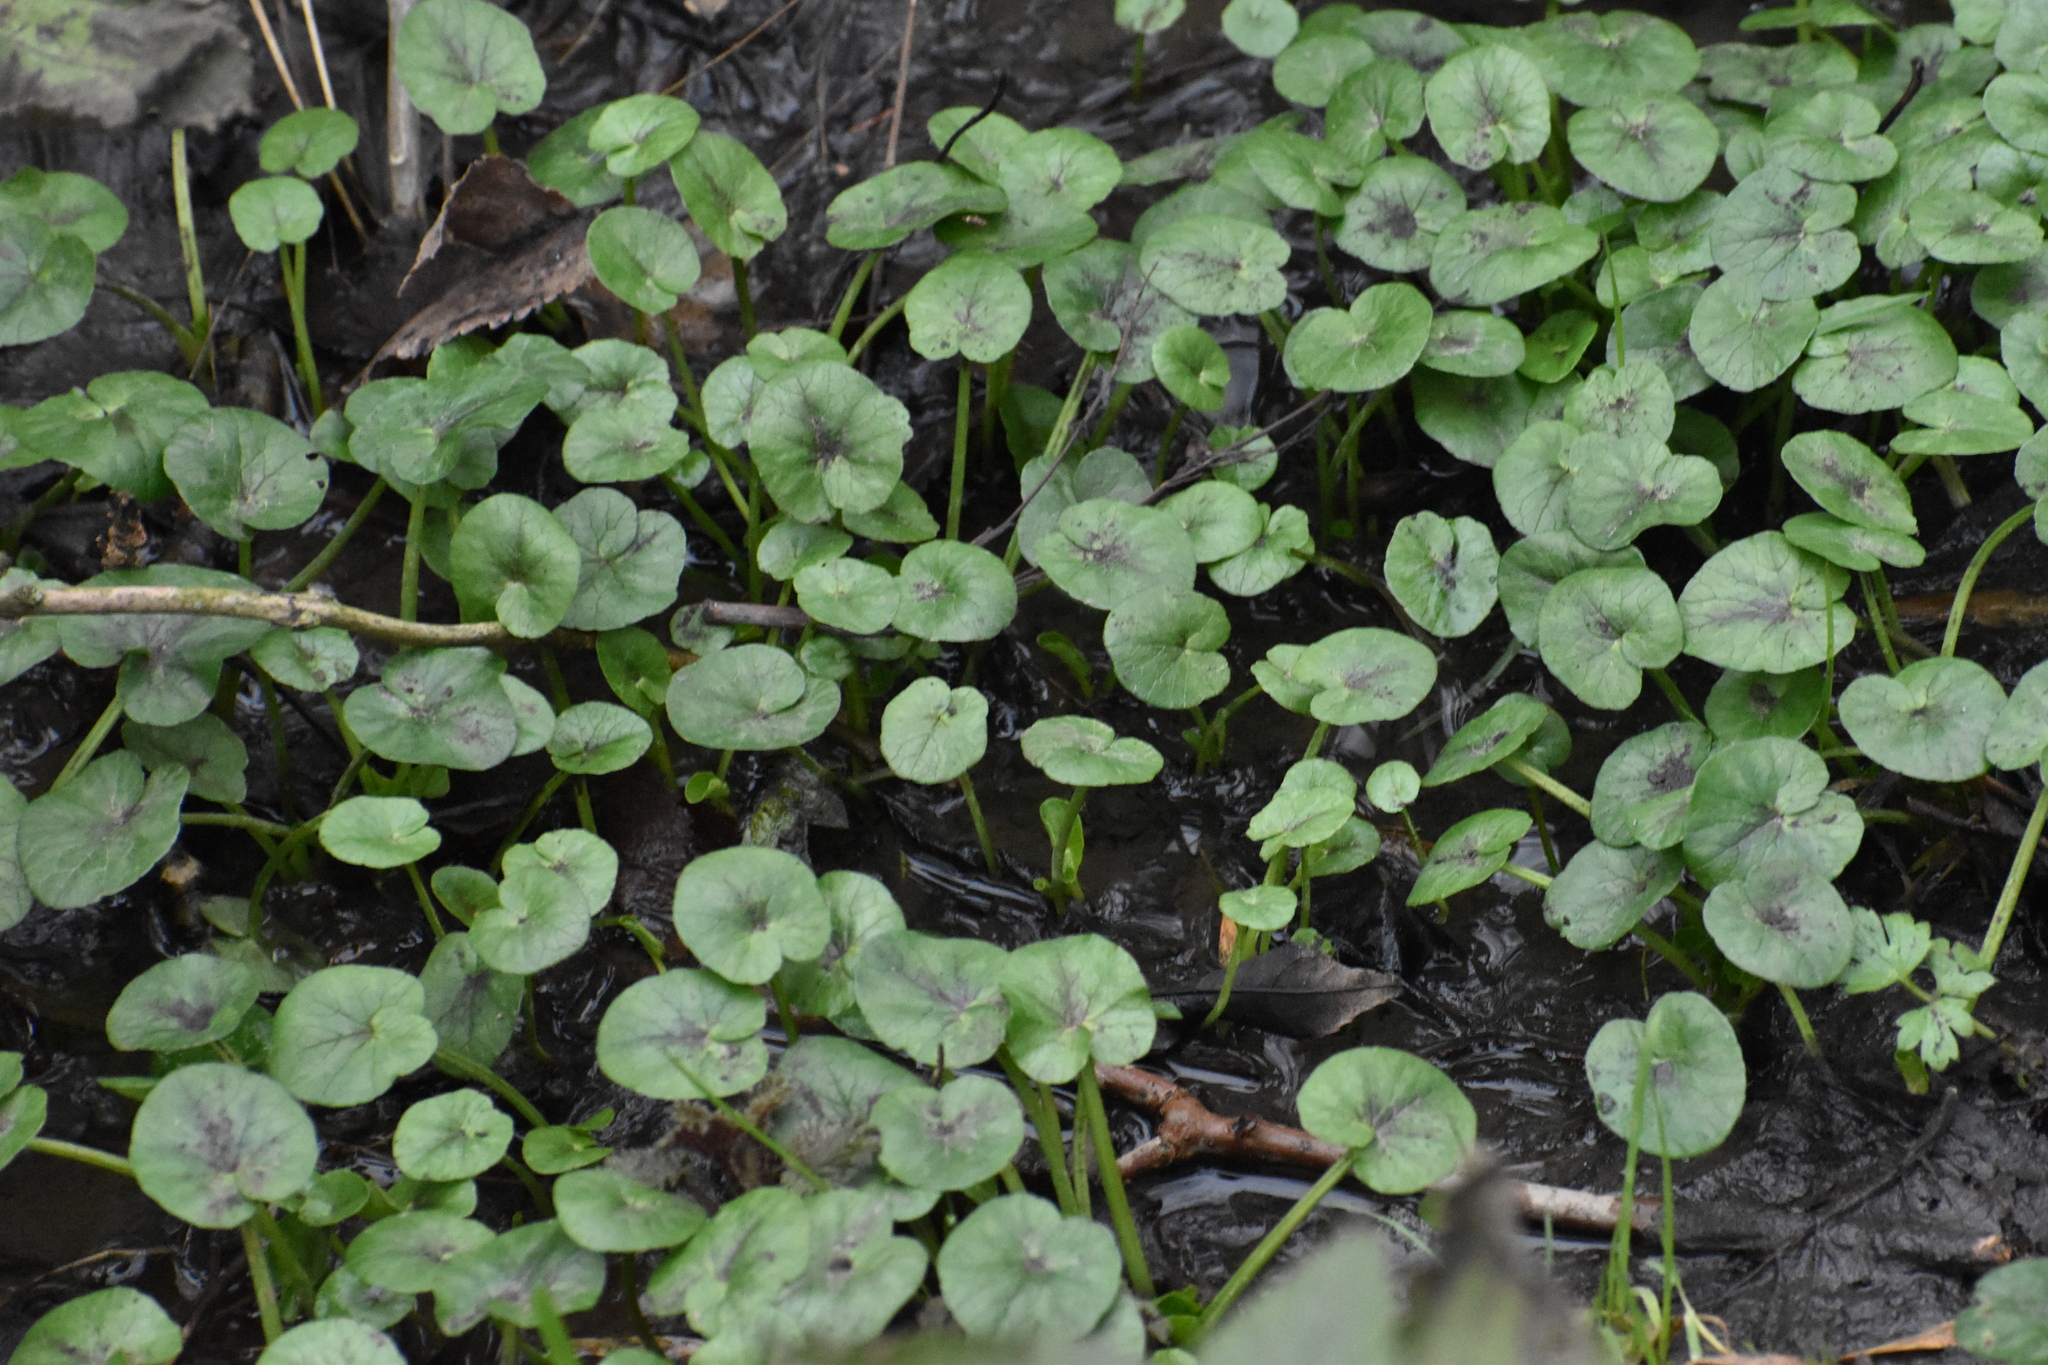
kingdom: Plantae
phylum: Tracheophyta
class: Magnoliopsida
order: Ranunculales
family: Ranunculaceae
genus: Ficaria
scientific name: Ficaria verna
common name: Lesser celandine
